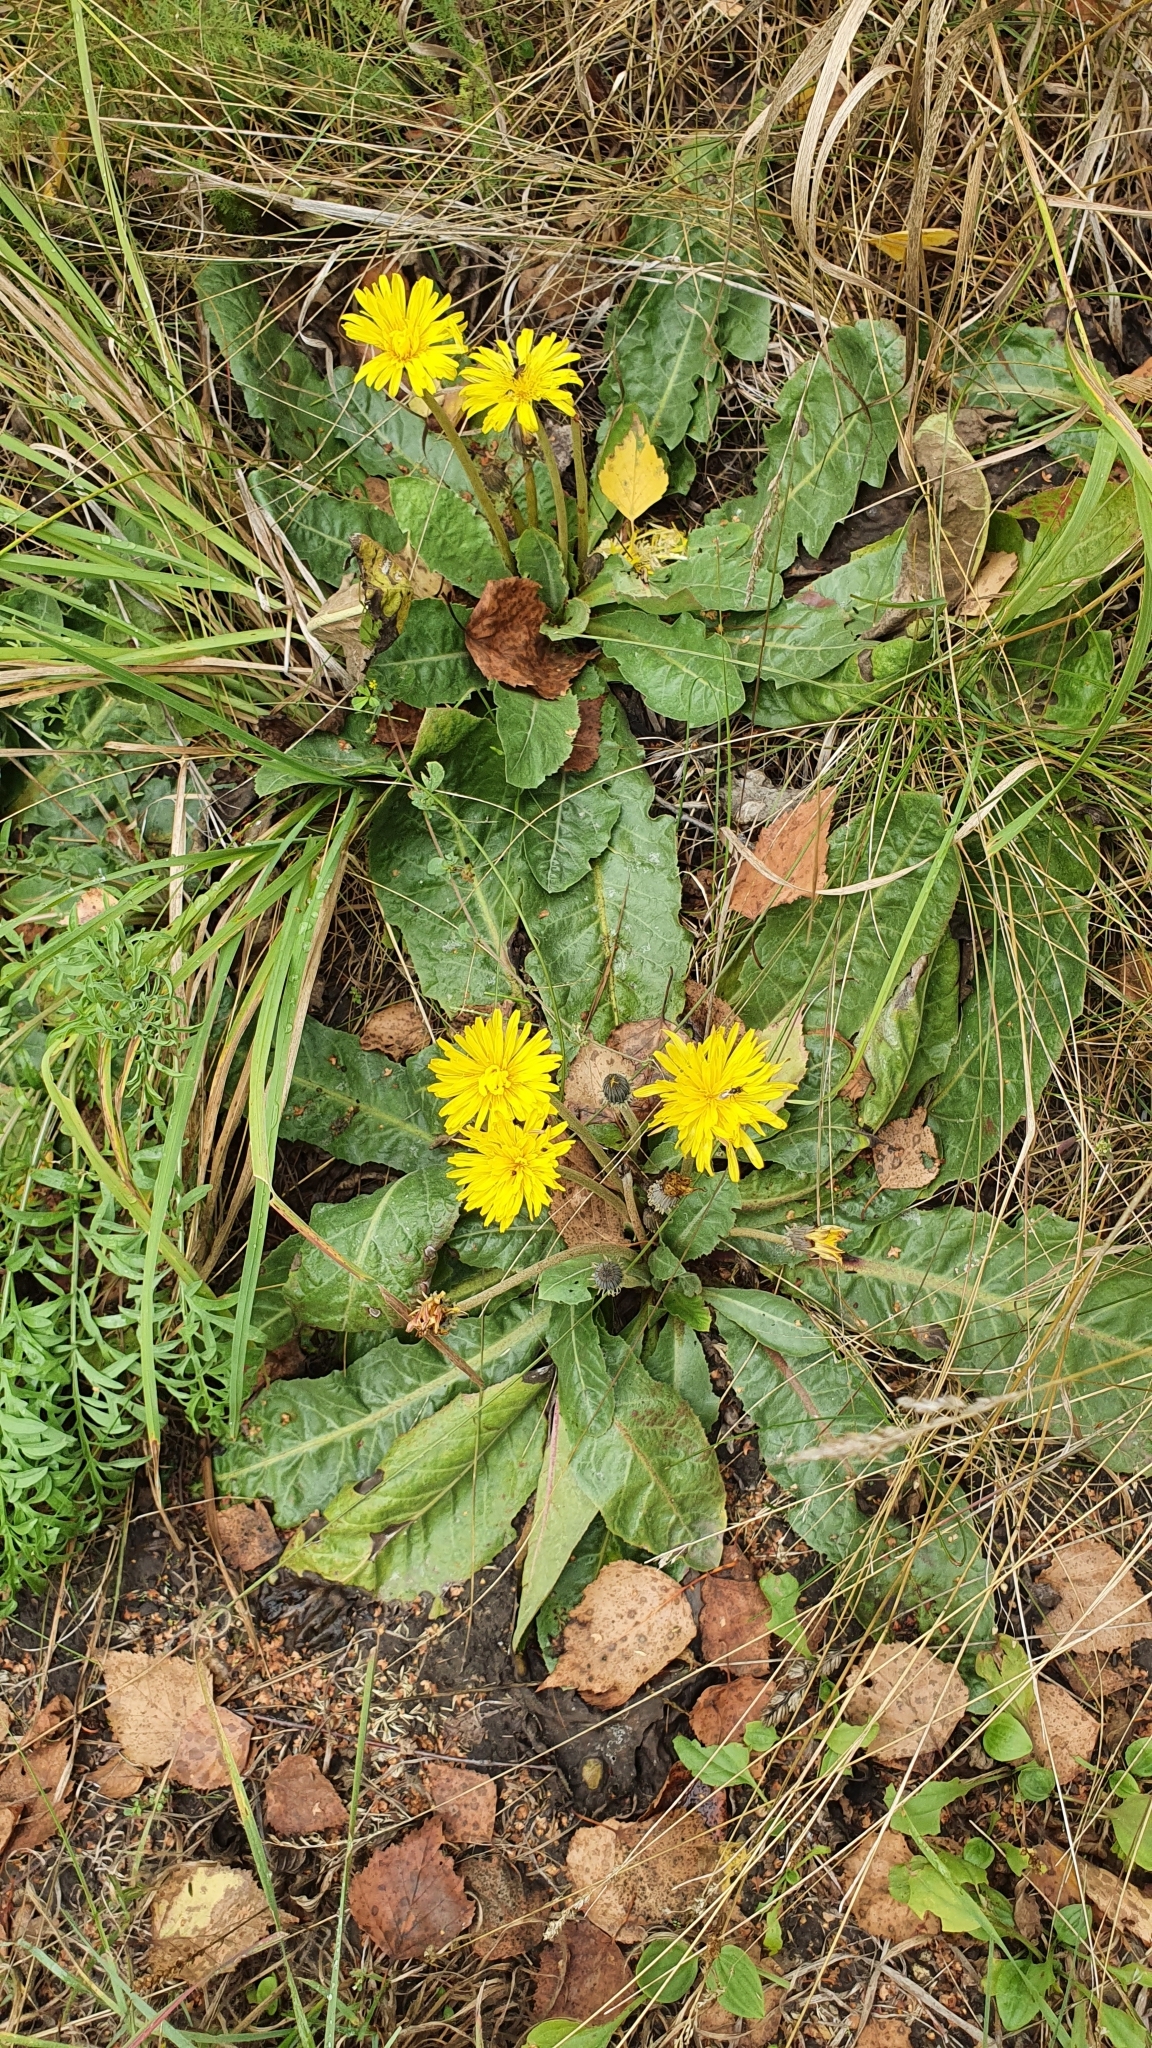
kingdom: Plantae
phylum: Tracheophyta
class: Magnoliopsida
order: Asterales
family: Asteraceae
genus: Taraxacum
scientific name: Taraxacum serotinum
